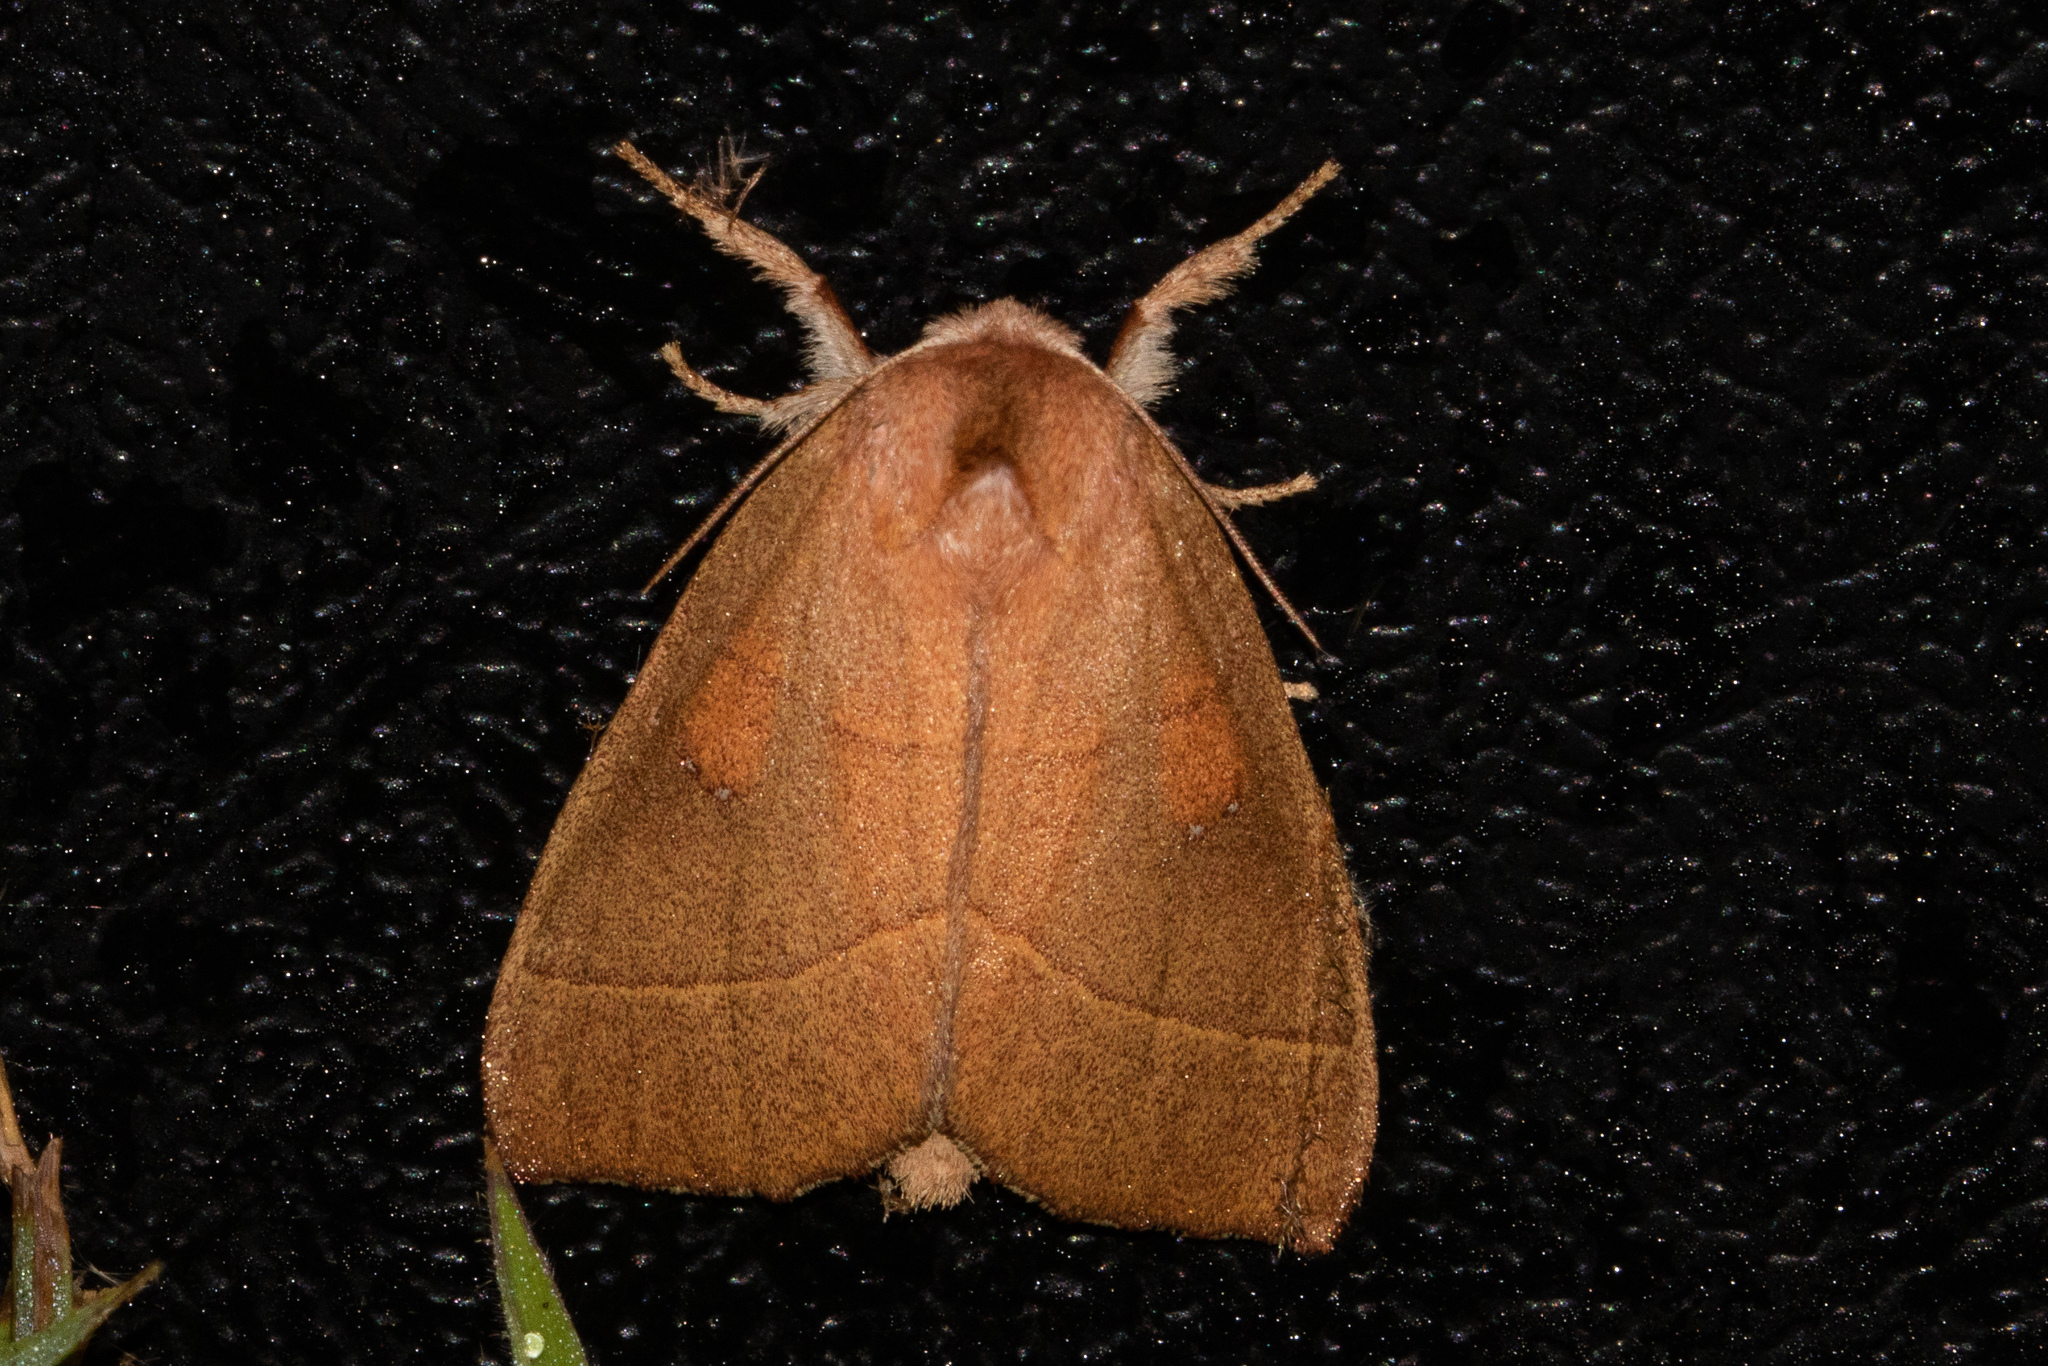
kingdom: Animalia
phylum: Arthropoda
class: Insecta
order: Lepidoptera
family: Notodontidae
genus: Nadata
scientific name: Nadata gibbosa
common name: White-dotted prominent
